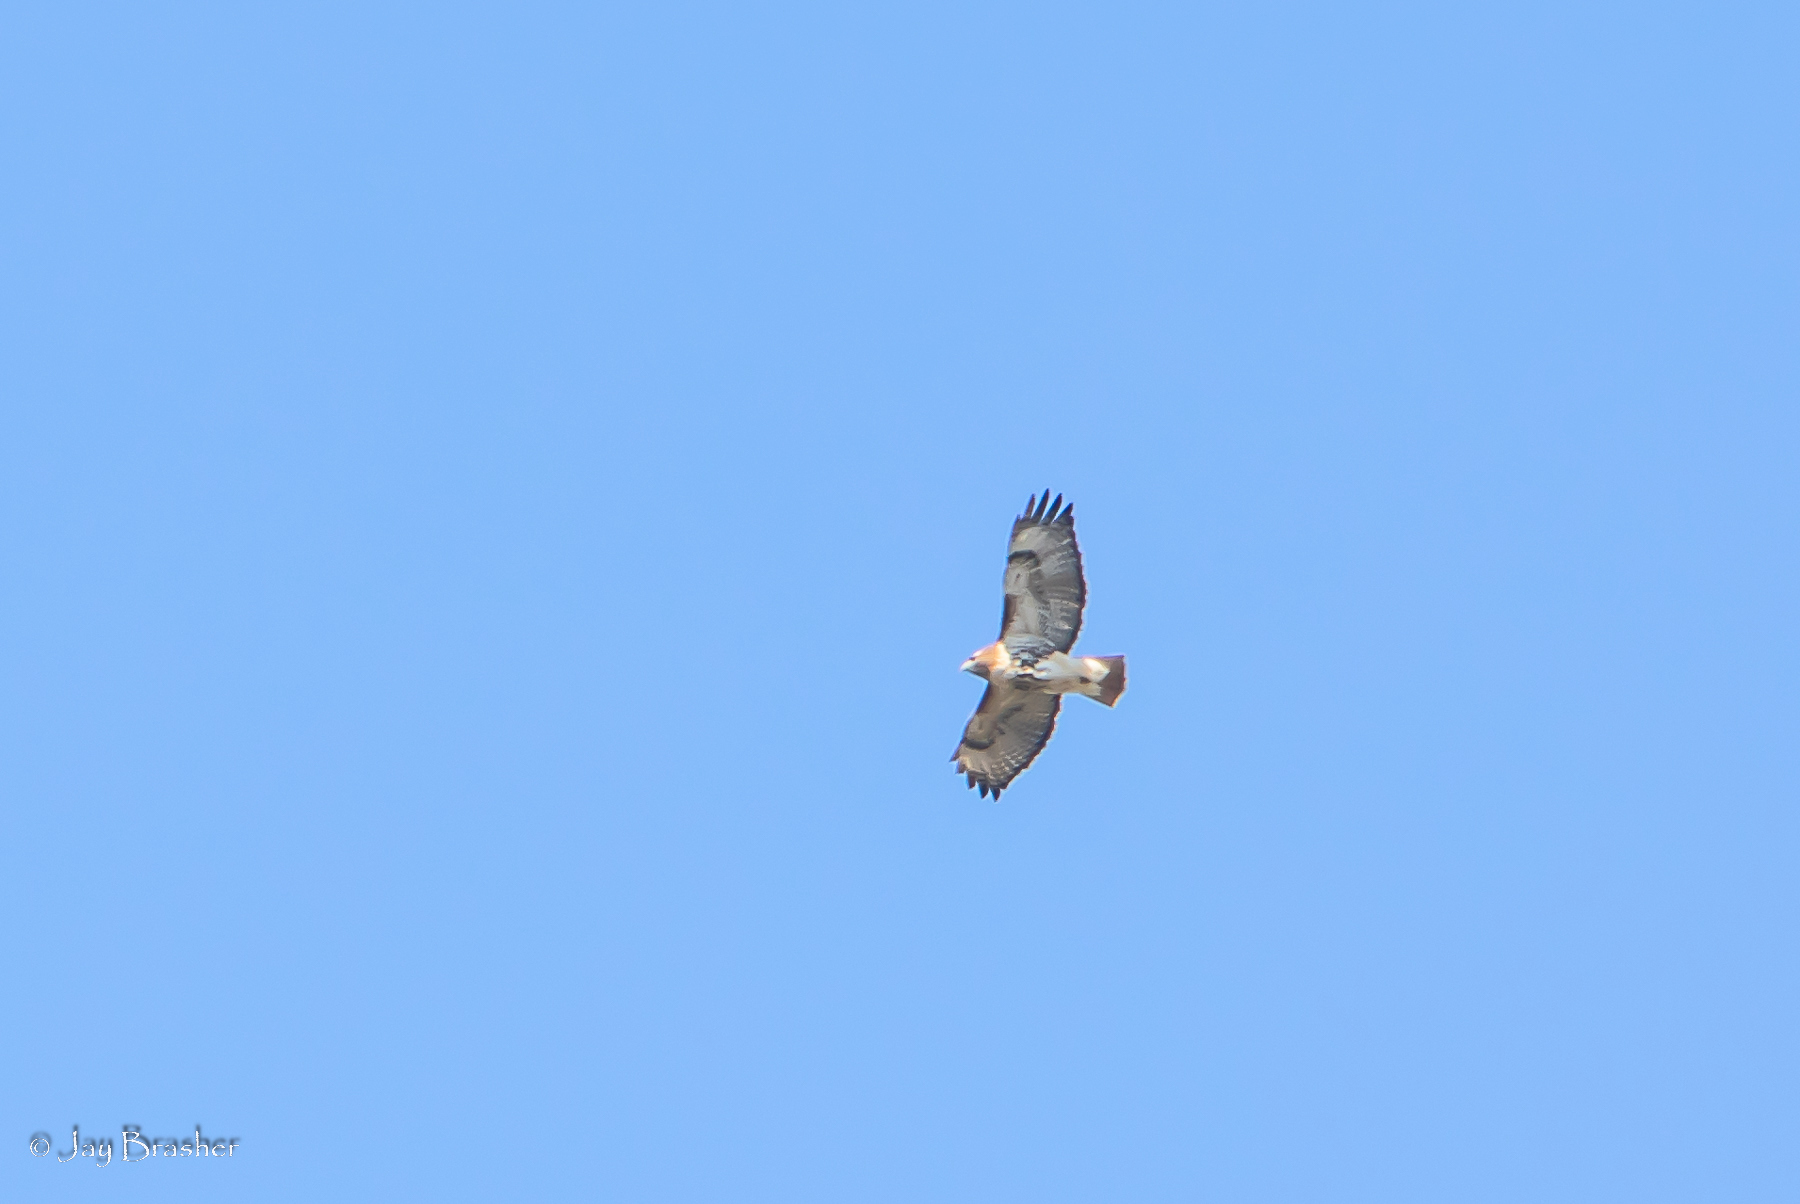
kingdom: Animalia
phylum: Chordata
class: Aves
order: Accipitriformes
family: Accipitridae
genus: Buteo
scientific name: Buteo jamaicensis
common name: Red-tailed hawk
